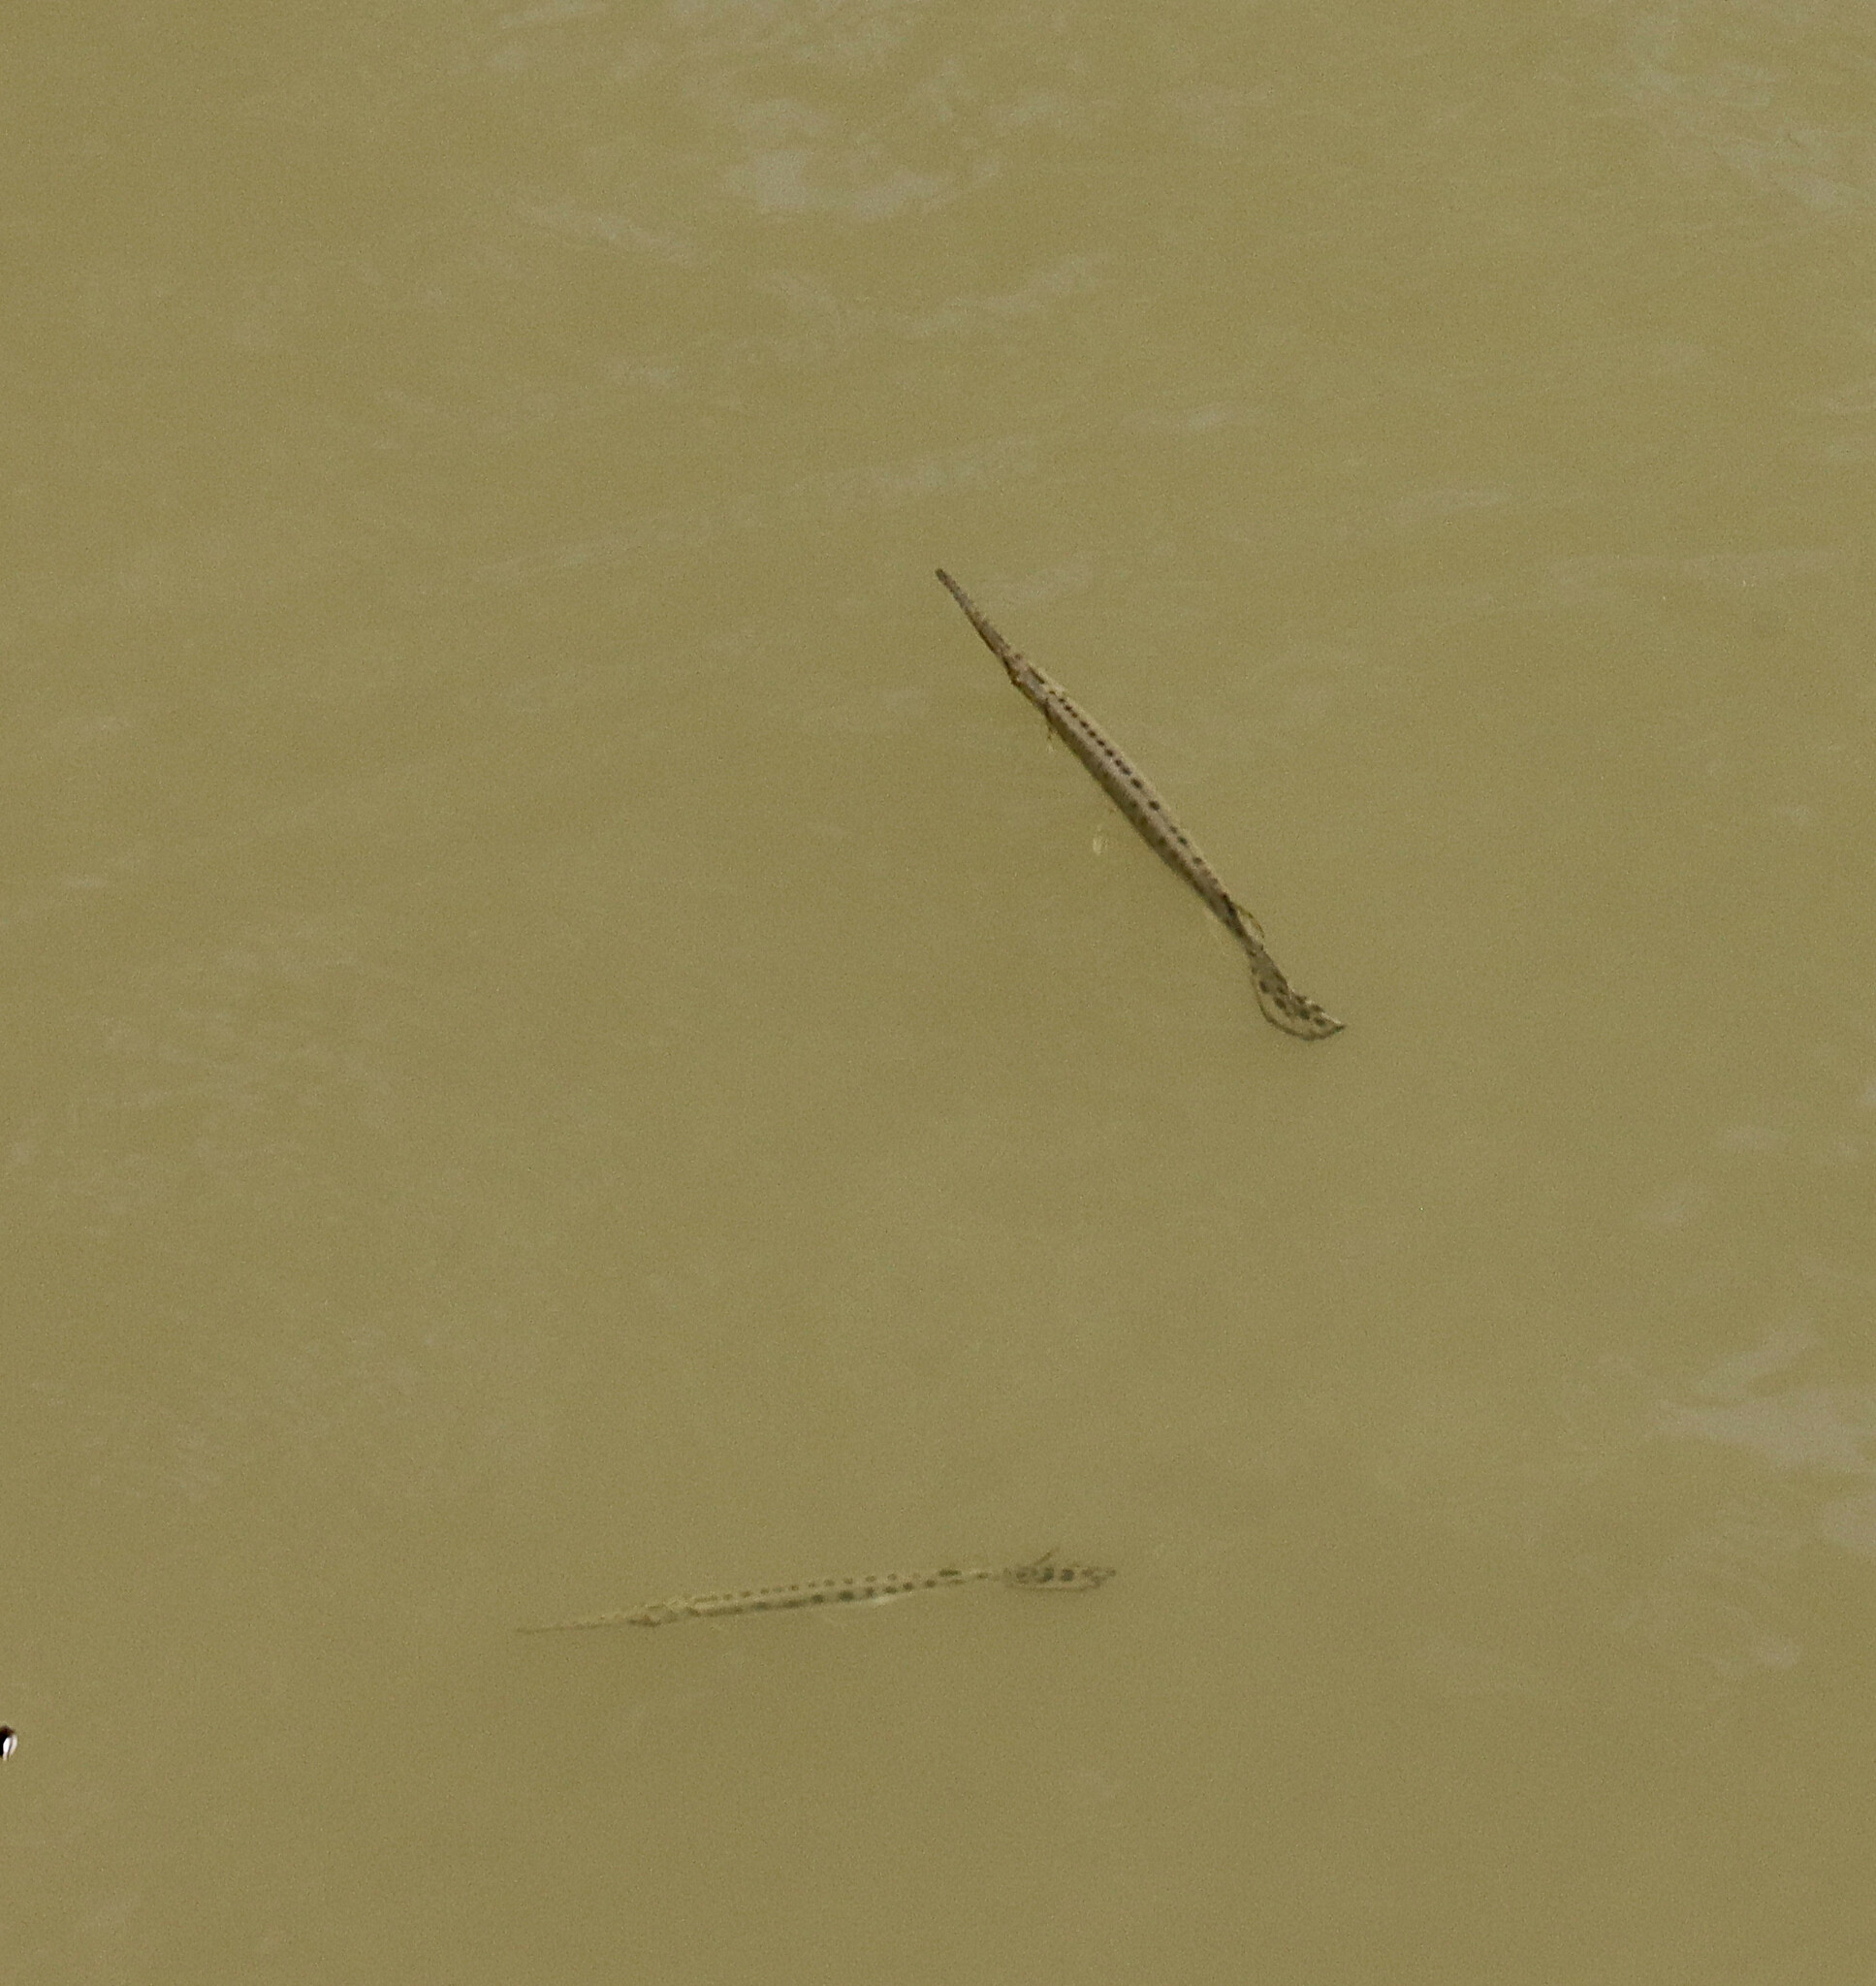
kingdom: Animalia
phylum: Chordata
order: Lepisosteiformes
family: Lepisosteidae
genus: Lepisosteus
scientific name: Lepisosteus osseus
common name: Longnose gar
